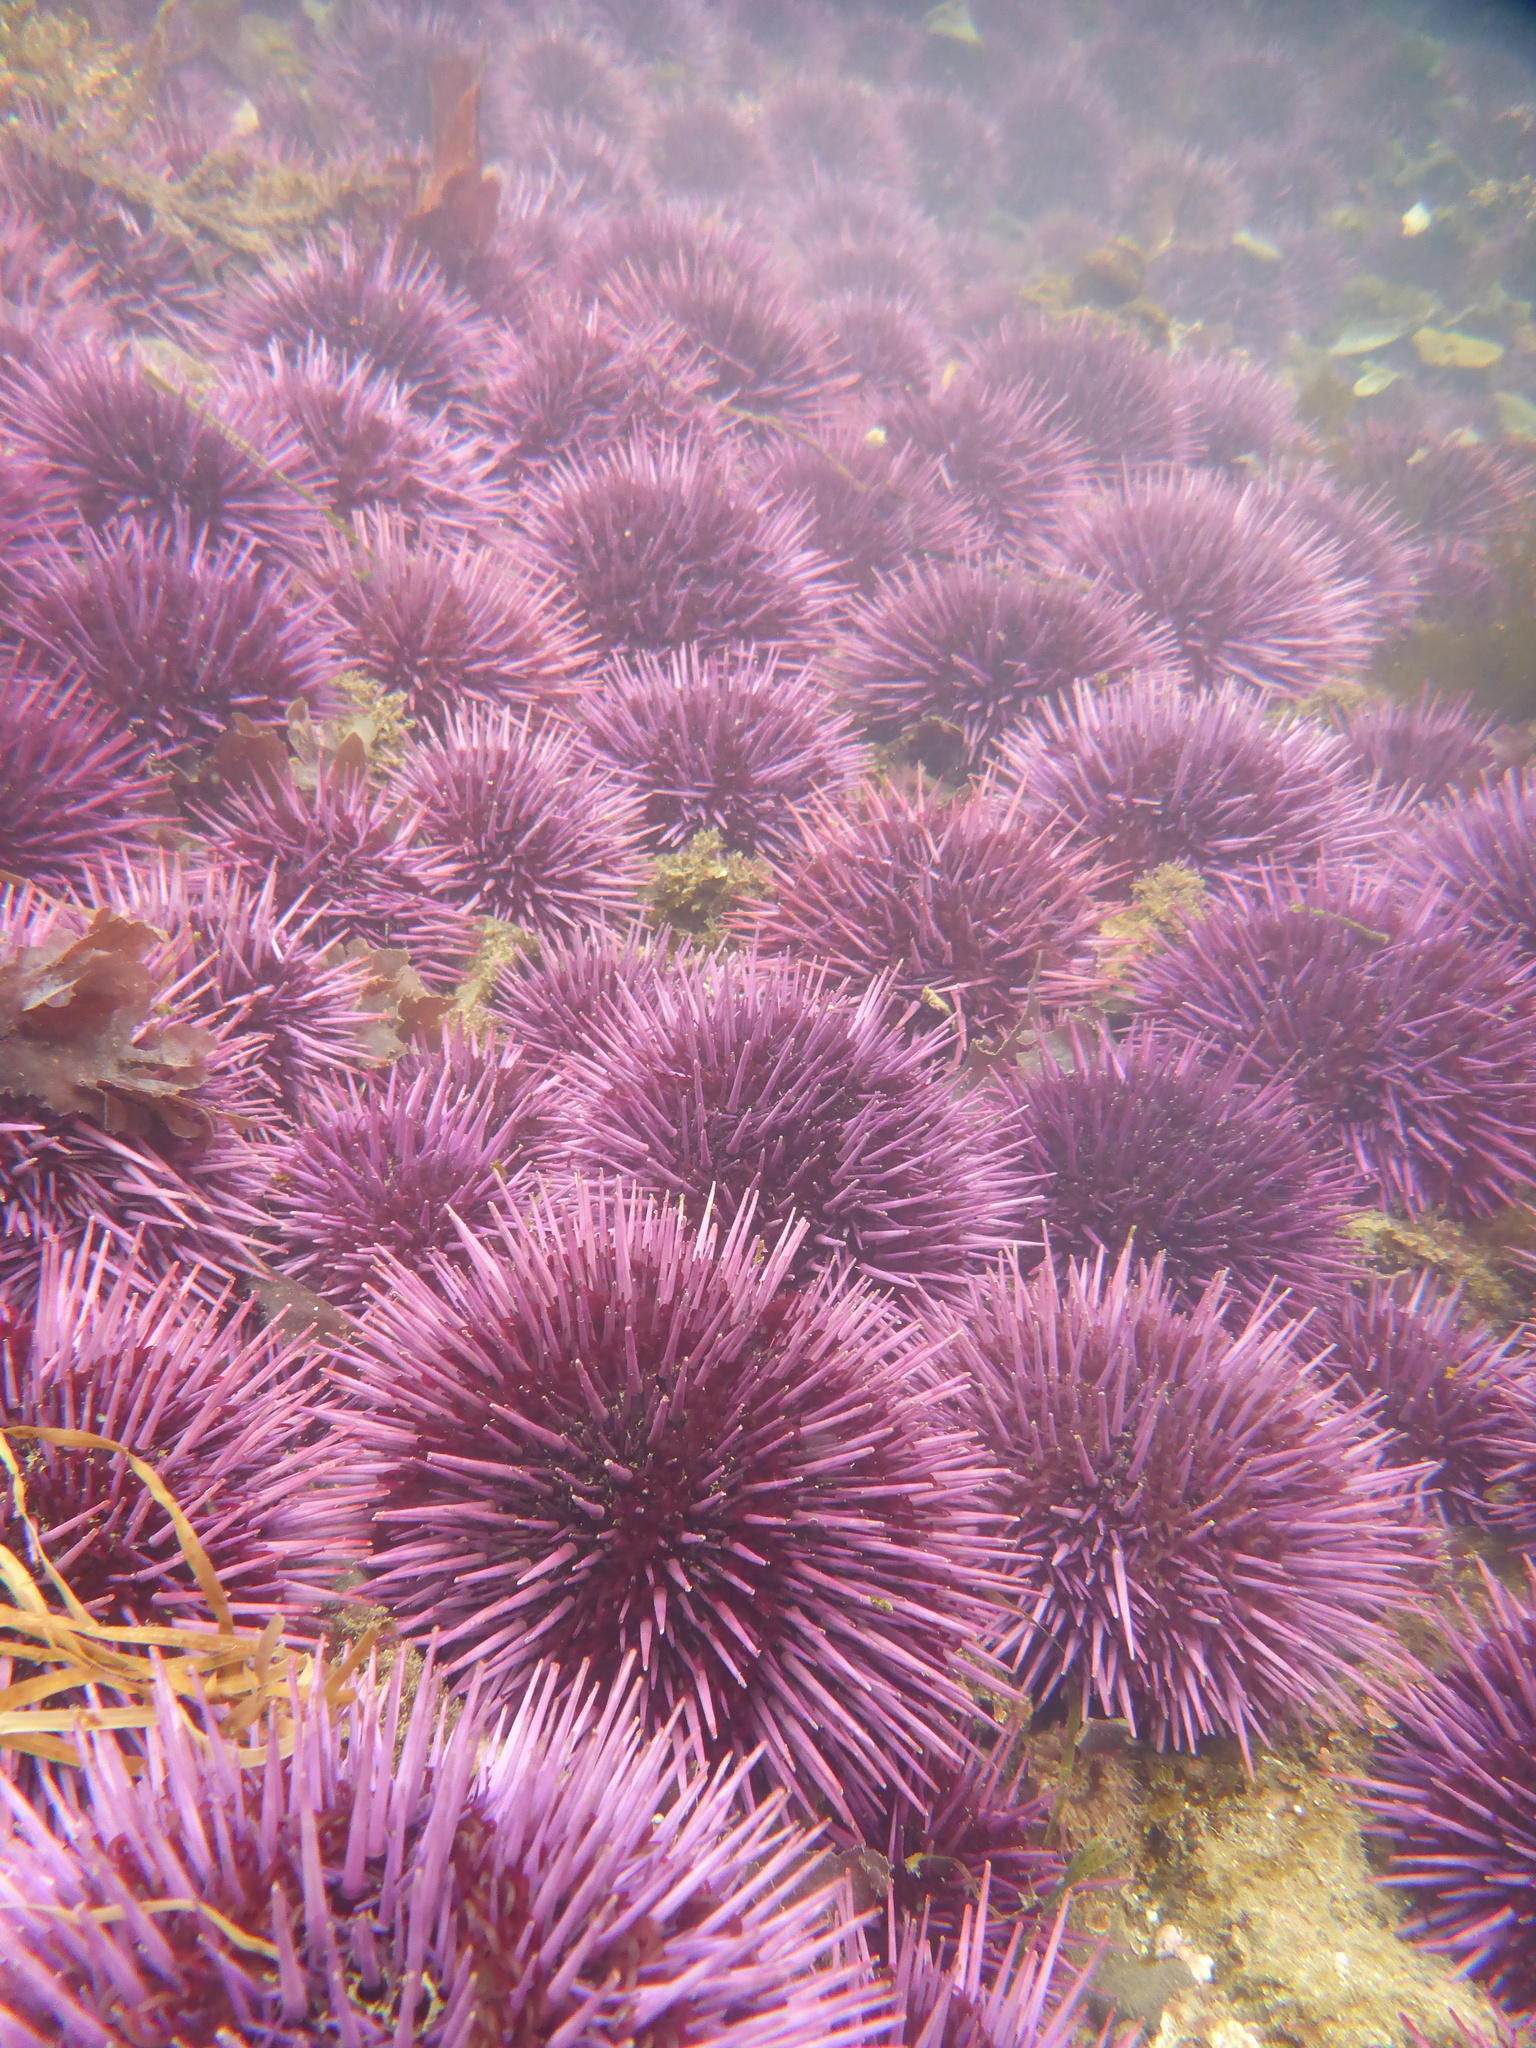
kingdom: Animalia
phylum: Echinodermata
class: Echinoidea
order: Camarodonta
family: Strongylocentrotidae
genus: Strongylocentrotus
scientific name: Strongylocentrotus purpuratus
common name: Purple sea urchin
